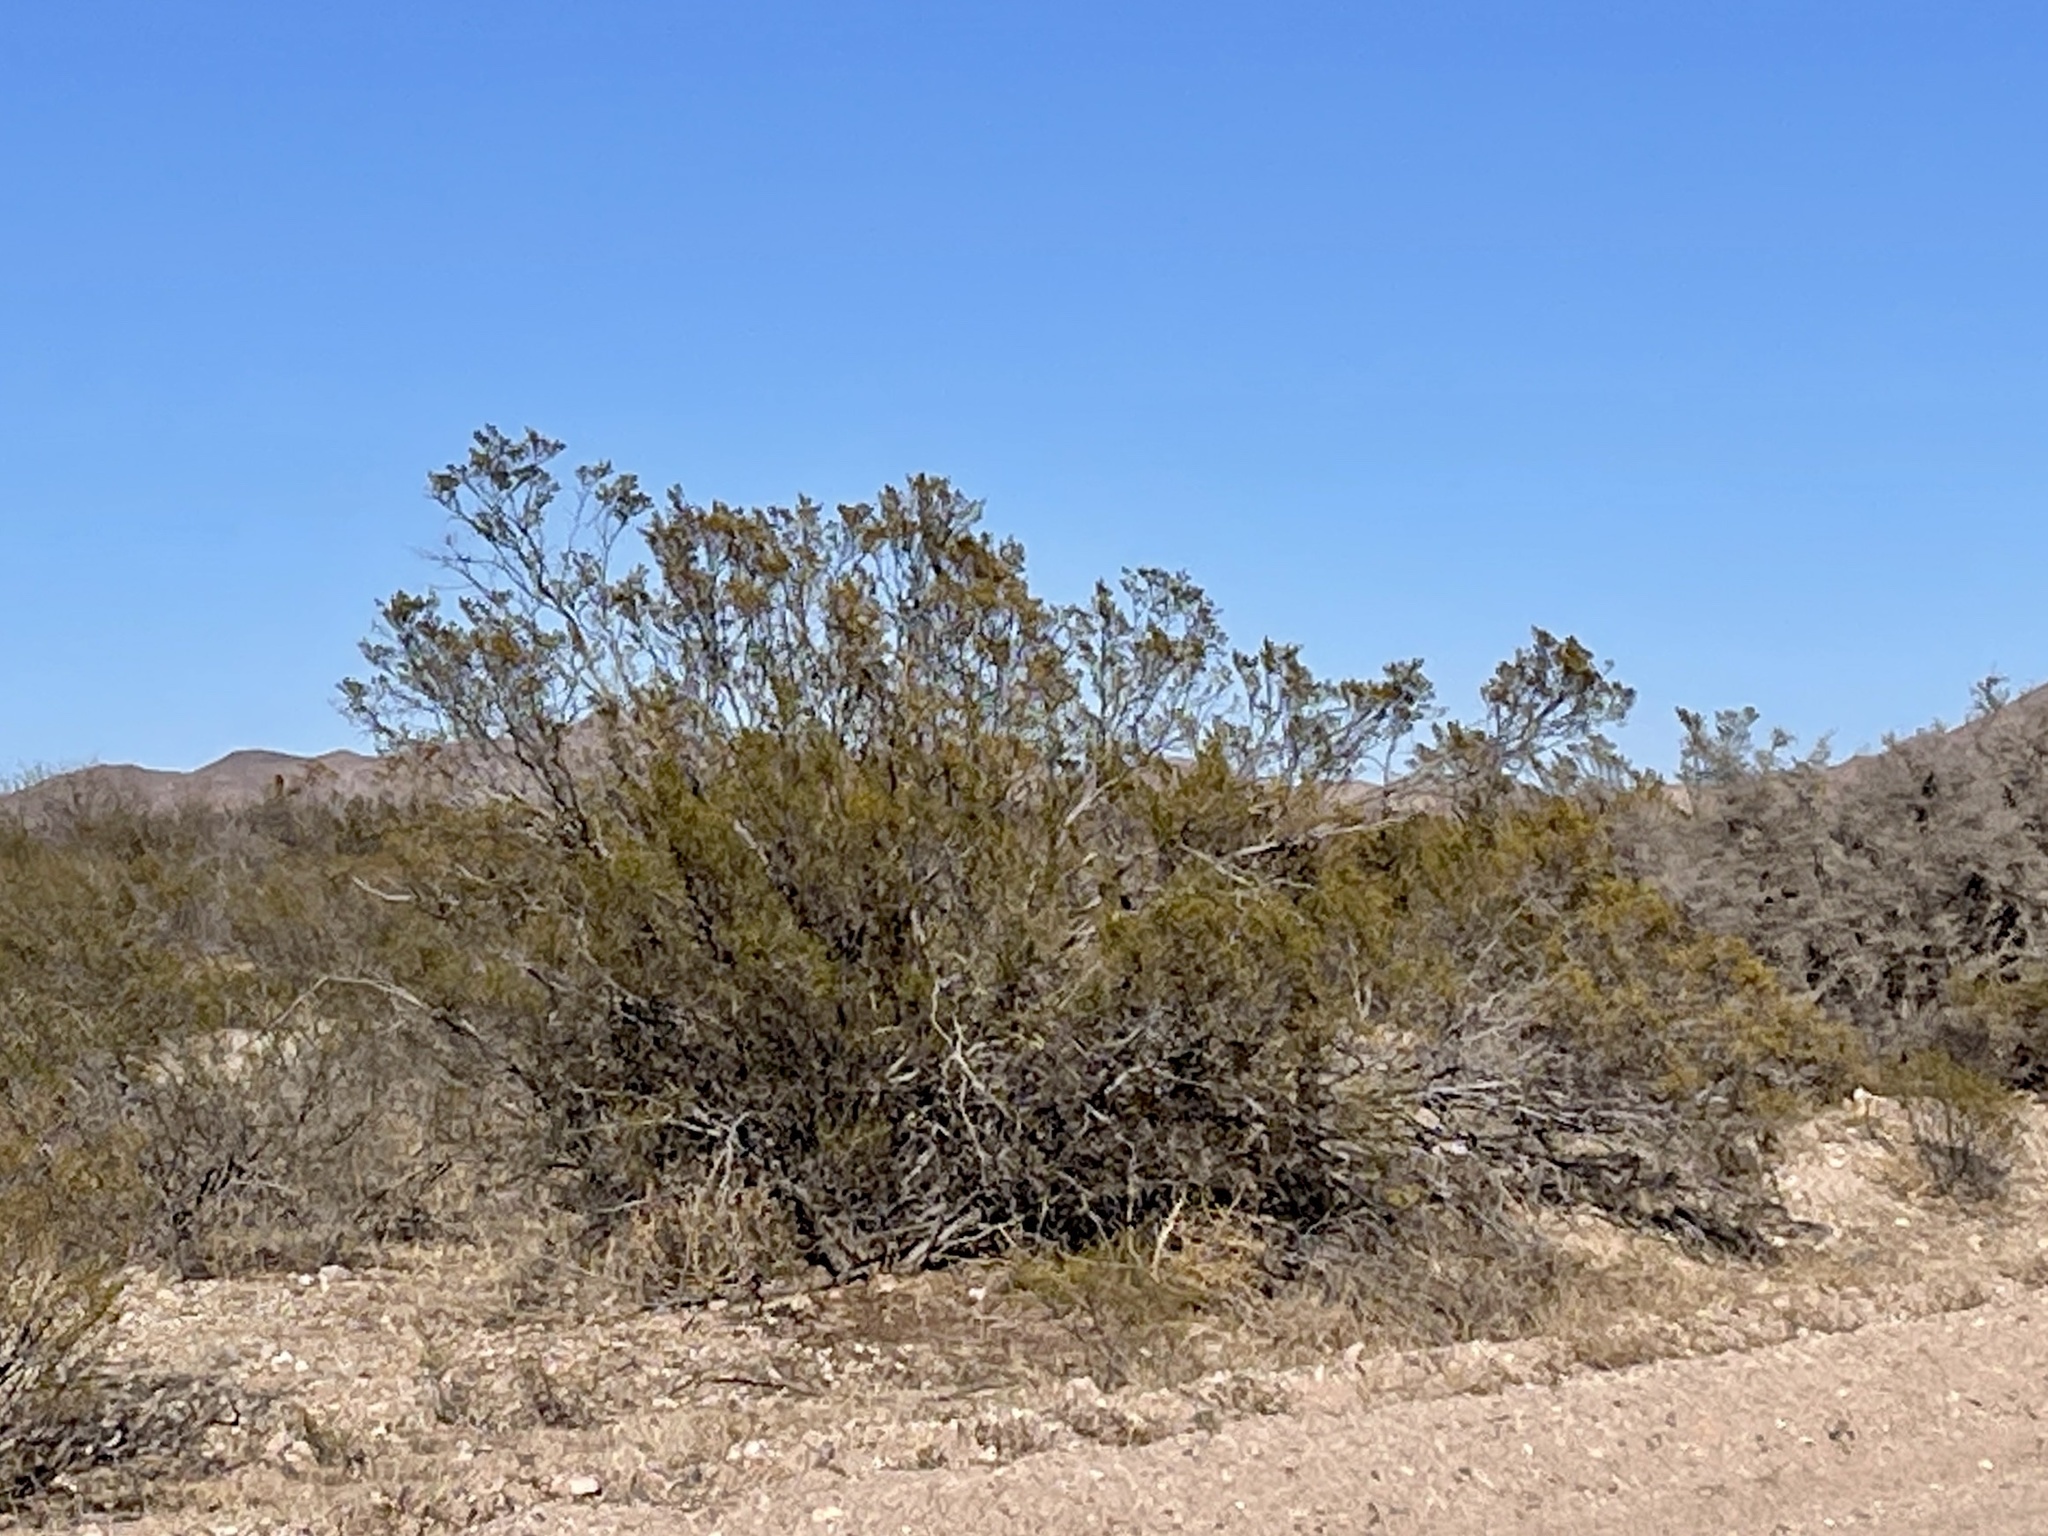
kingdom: Plantae
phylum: Tracheophyta
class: Magnoliopsida
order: Zygophyllales
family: Zygophyllaceae
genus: Larrea
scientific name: Larrea tridentata
